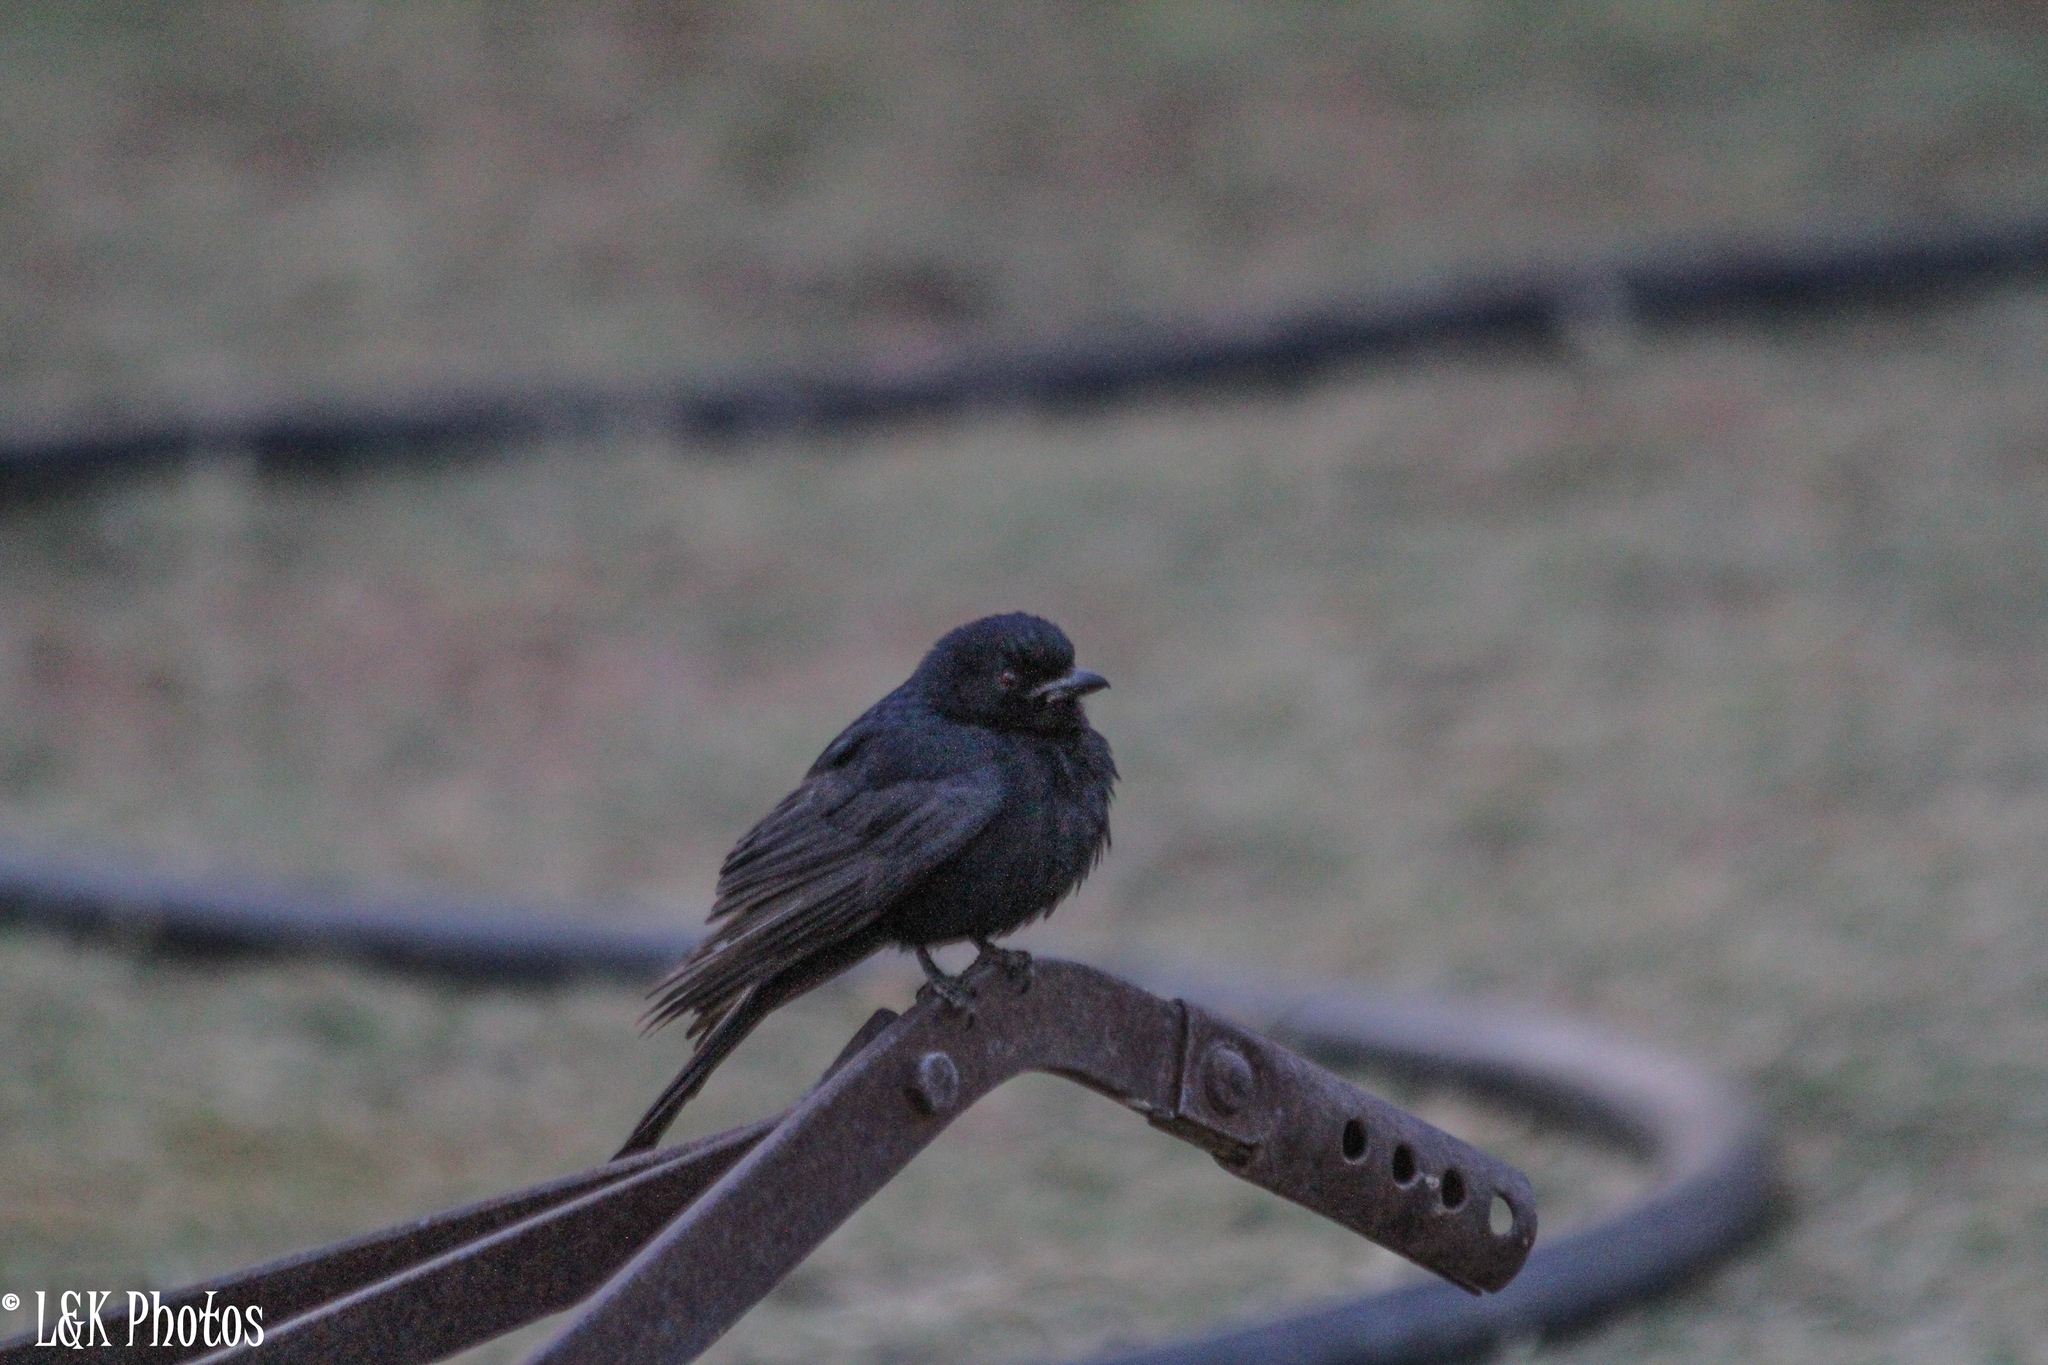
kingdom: Animalia
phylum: Chordata
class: Aves
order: Passeriformes
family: Dicruridae
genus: Dicrurus
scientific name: Dicrurus adsimilis
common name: Fork-tailed drongo
